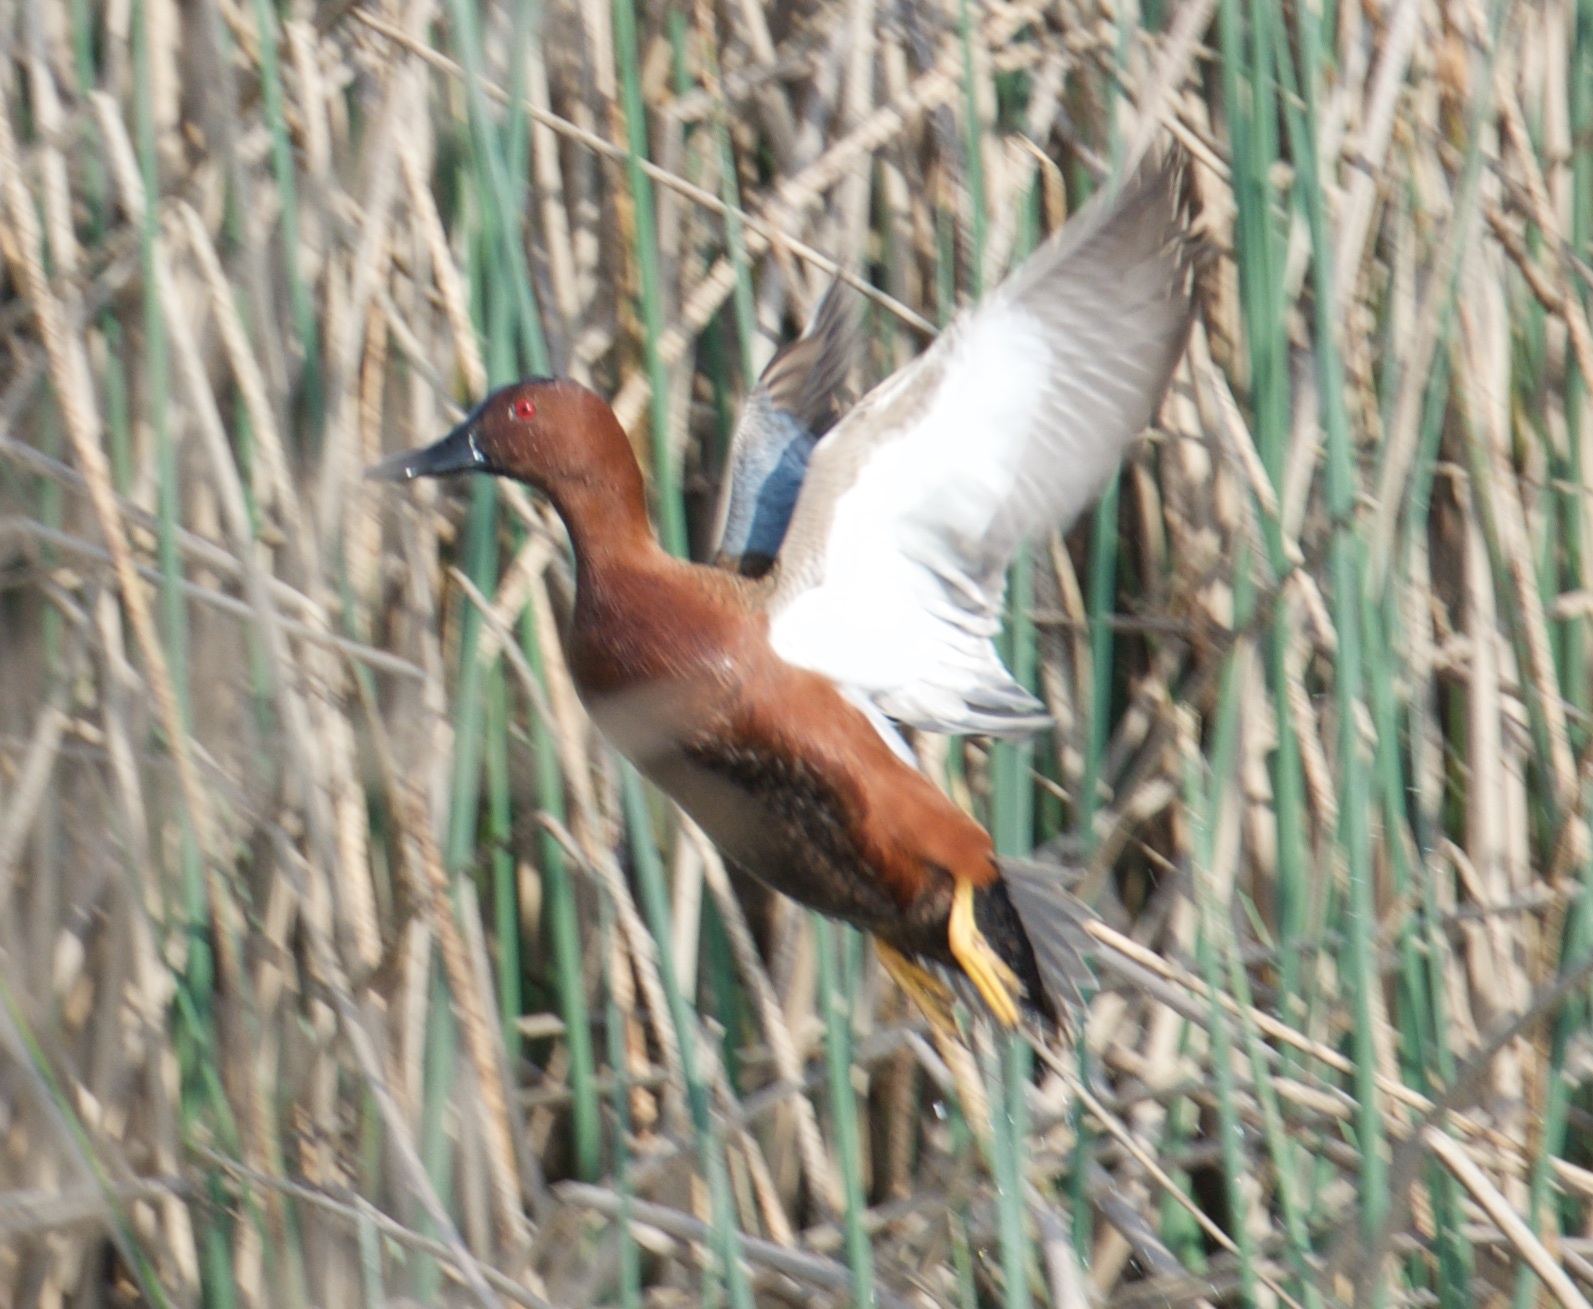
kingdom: Animalia
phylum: Chordata
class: Aves
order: Anseriformes
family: Anatidae
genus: Spatula
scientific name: Spatula cyanoptera
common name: Cinnamon teal
